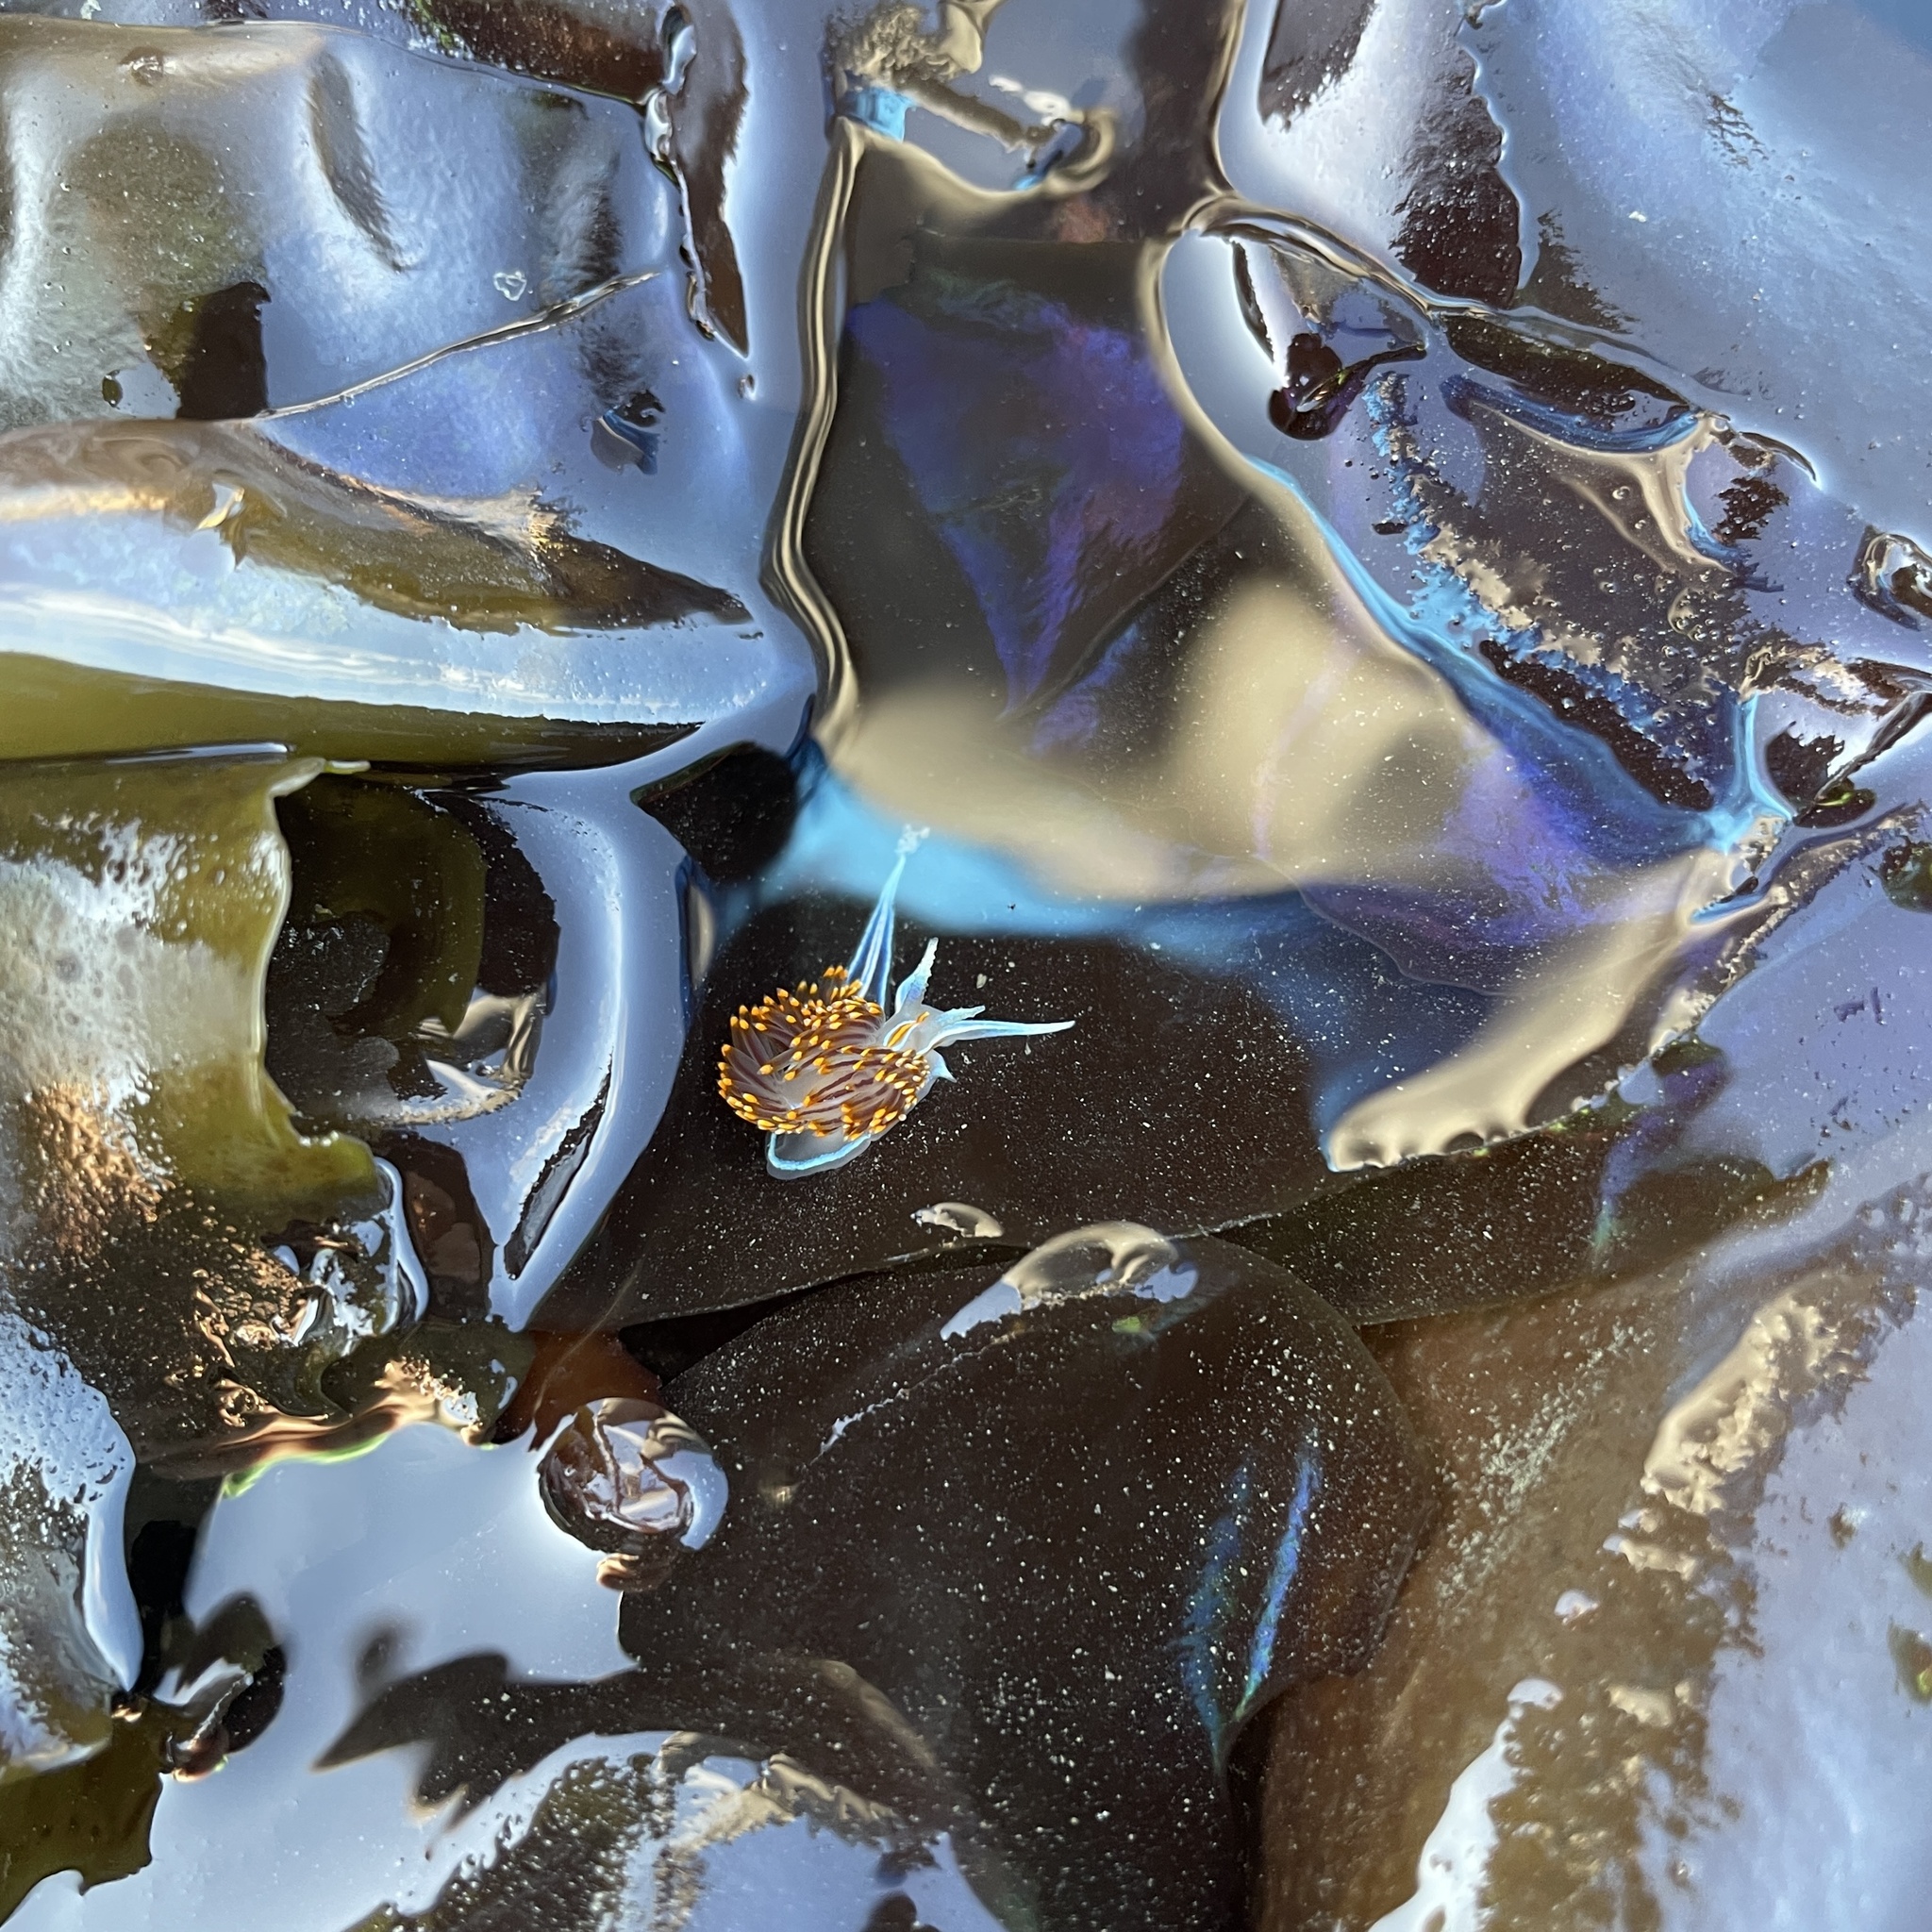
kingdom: Animalia
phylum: Mollusca
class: Gastropoda
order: Nudibranchia
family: Myrrhinidae
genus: Hermissenda
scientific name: Hermissenda opalescens
